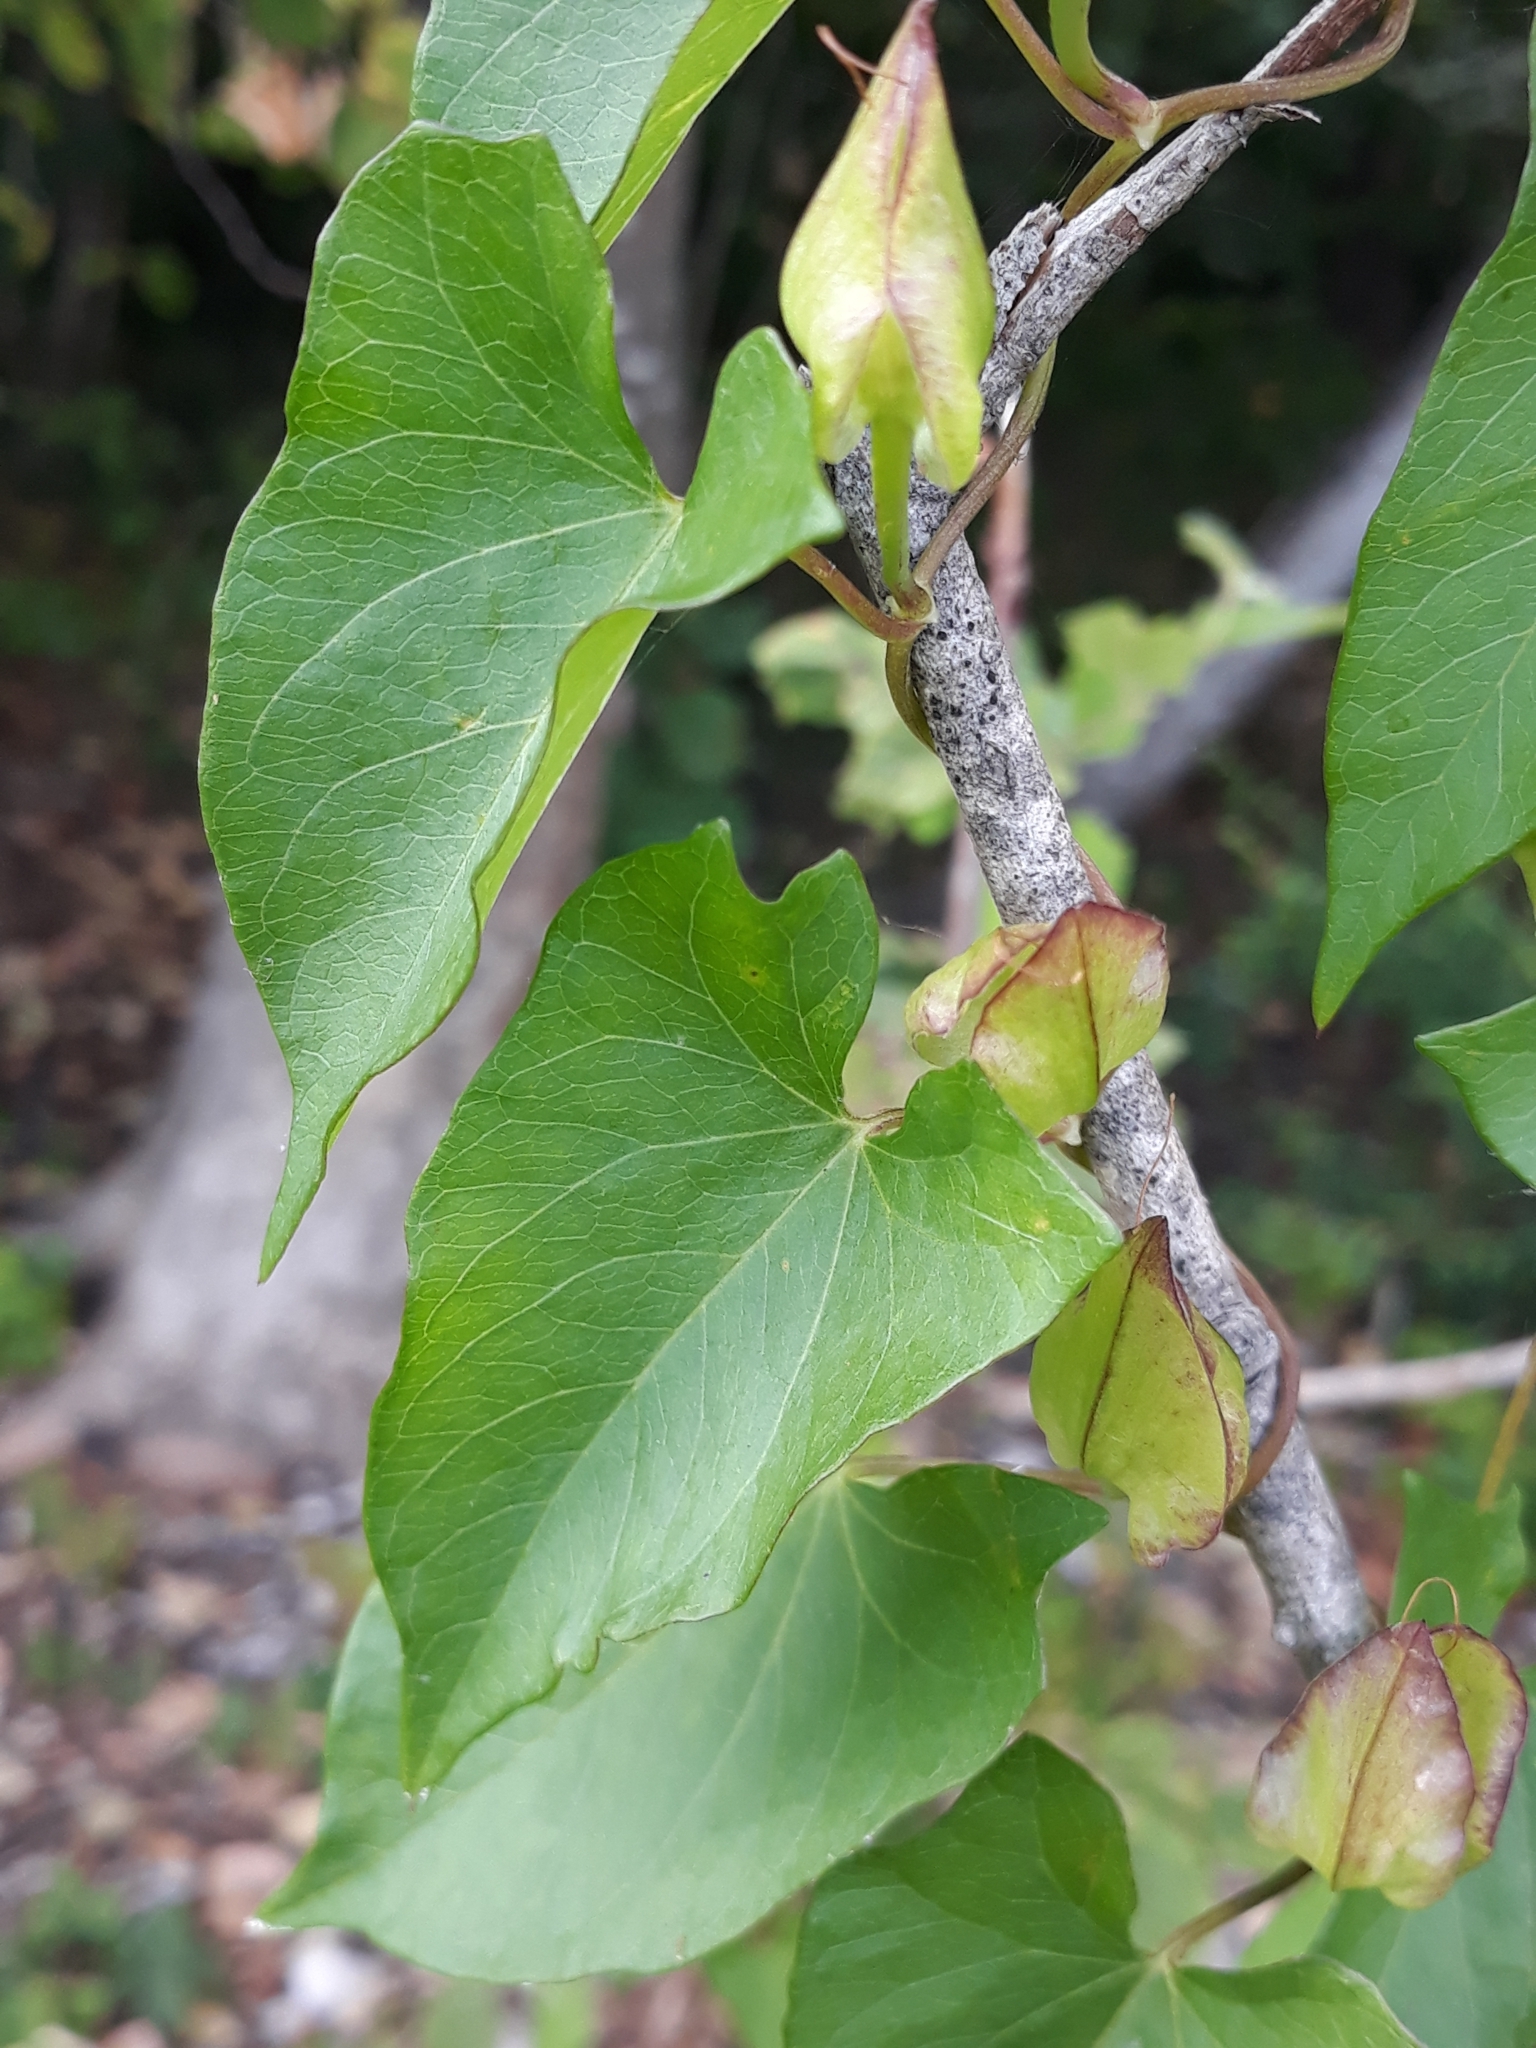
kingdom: Plantae
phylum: Tracheophyta
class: Magnoliopsida
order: Solanales
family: Convolvulaceae
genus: Calystegia
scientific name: Calystegia sepium
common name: Hedge bindweed
